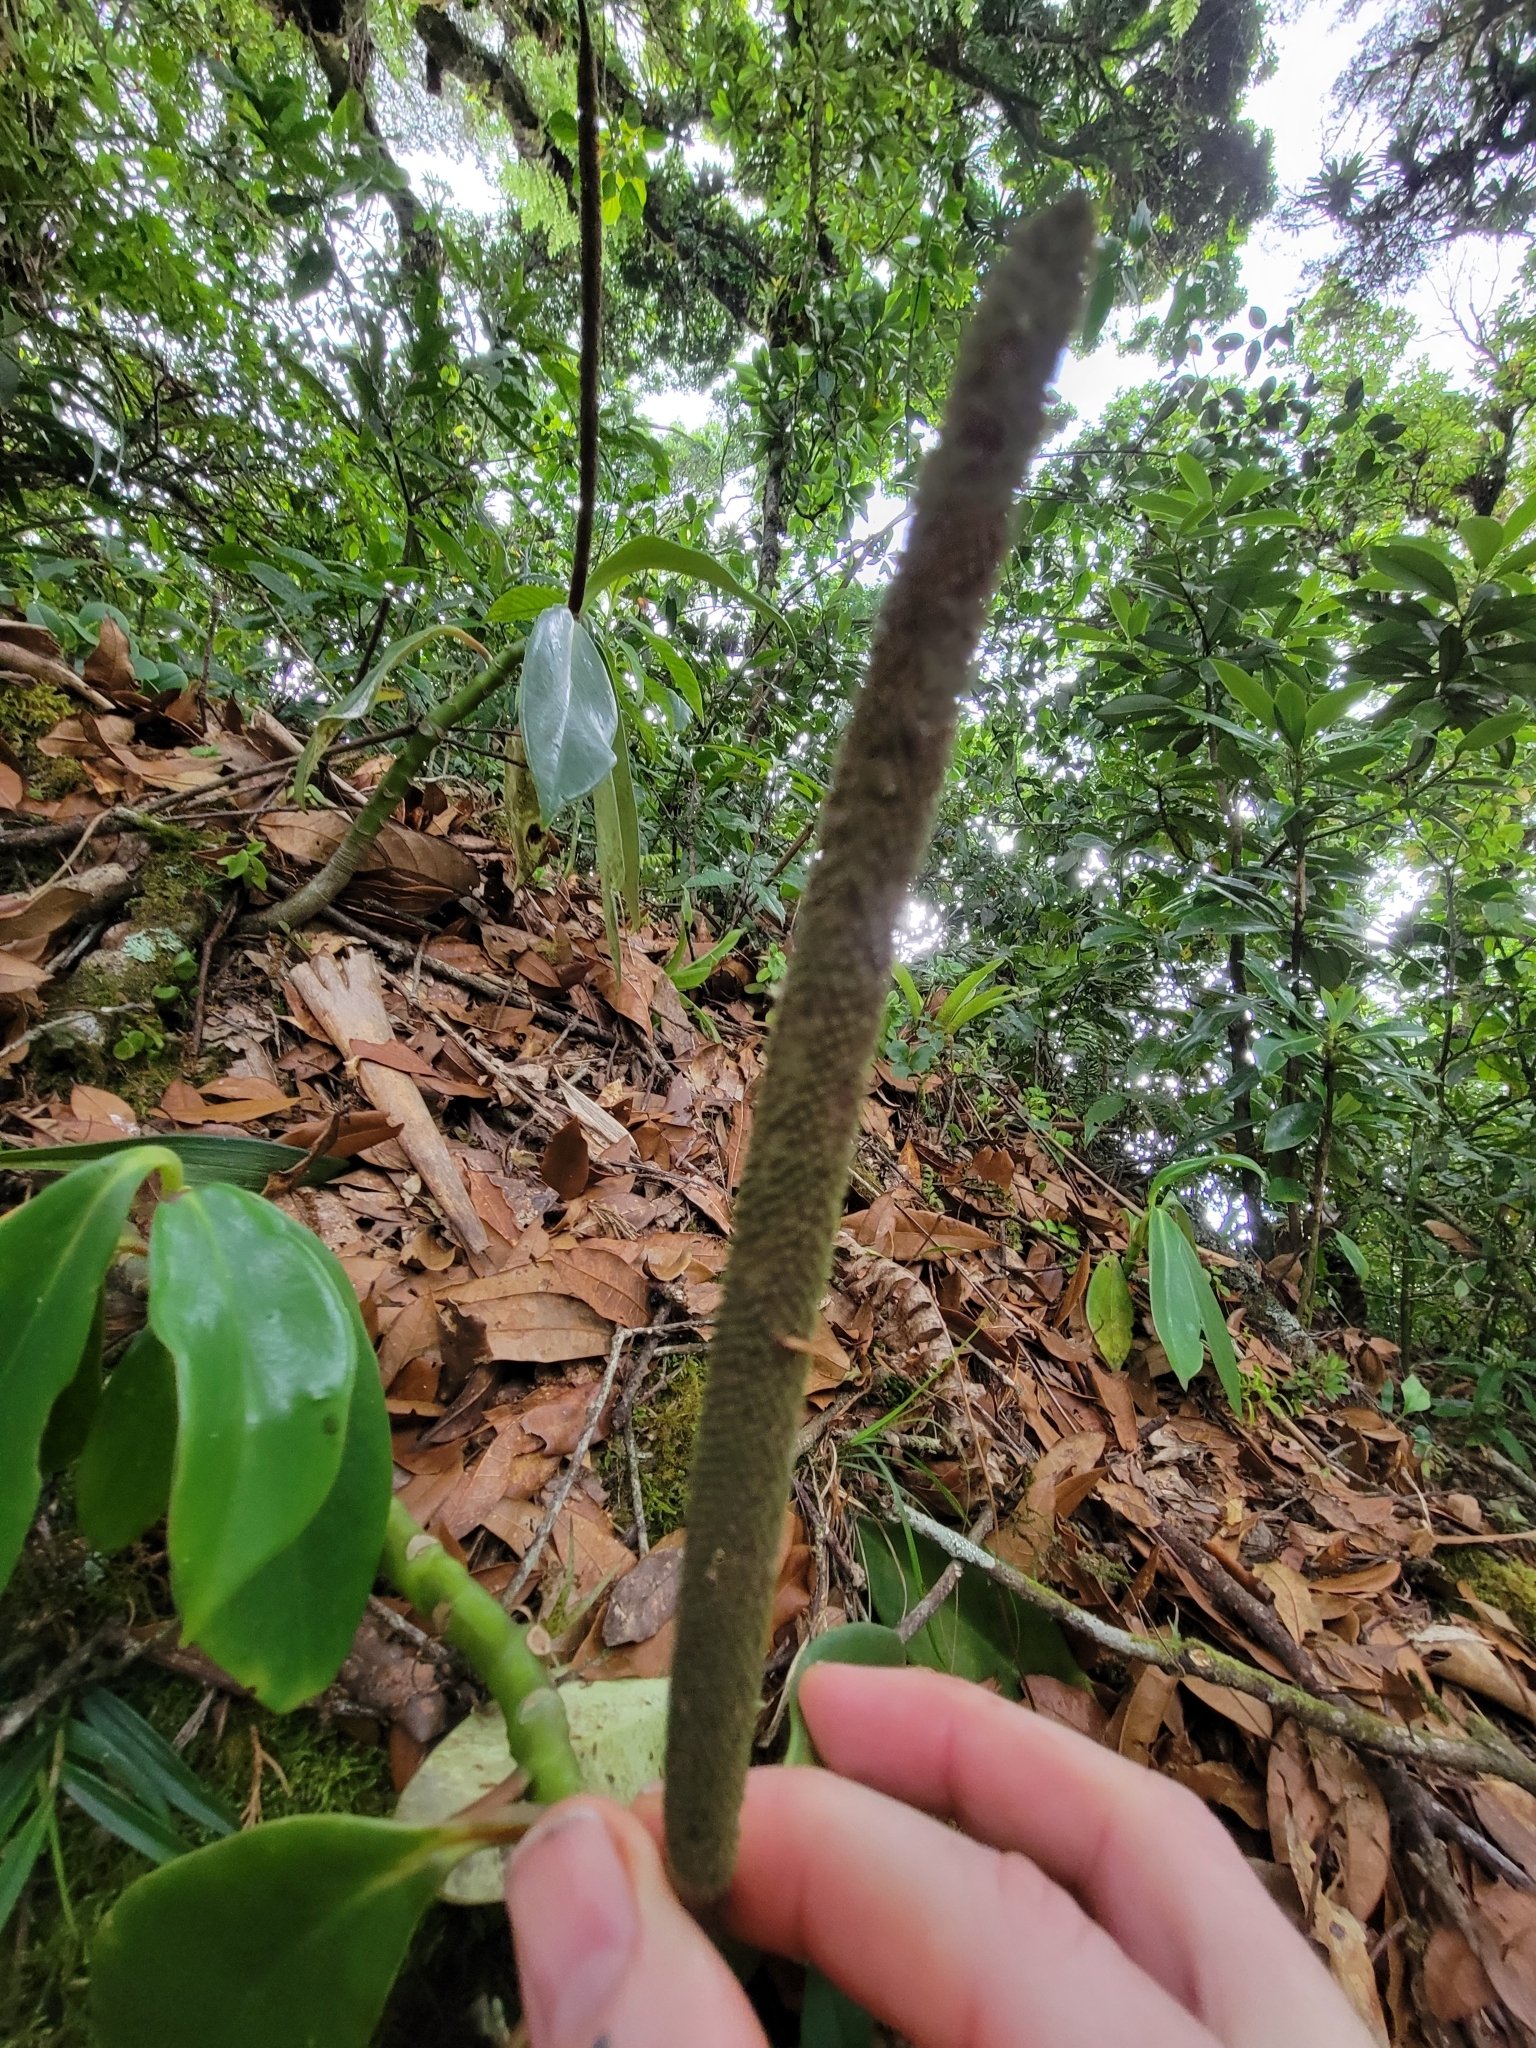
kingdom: Plantae
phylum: Tracheophyta
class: Magnoliopsida
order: Piperales
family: Piperaceae
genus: Peperomia
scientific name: Peperomia adscendens
